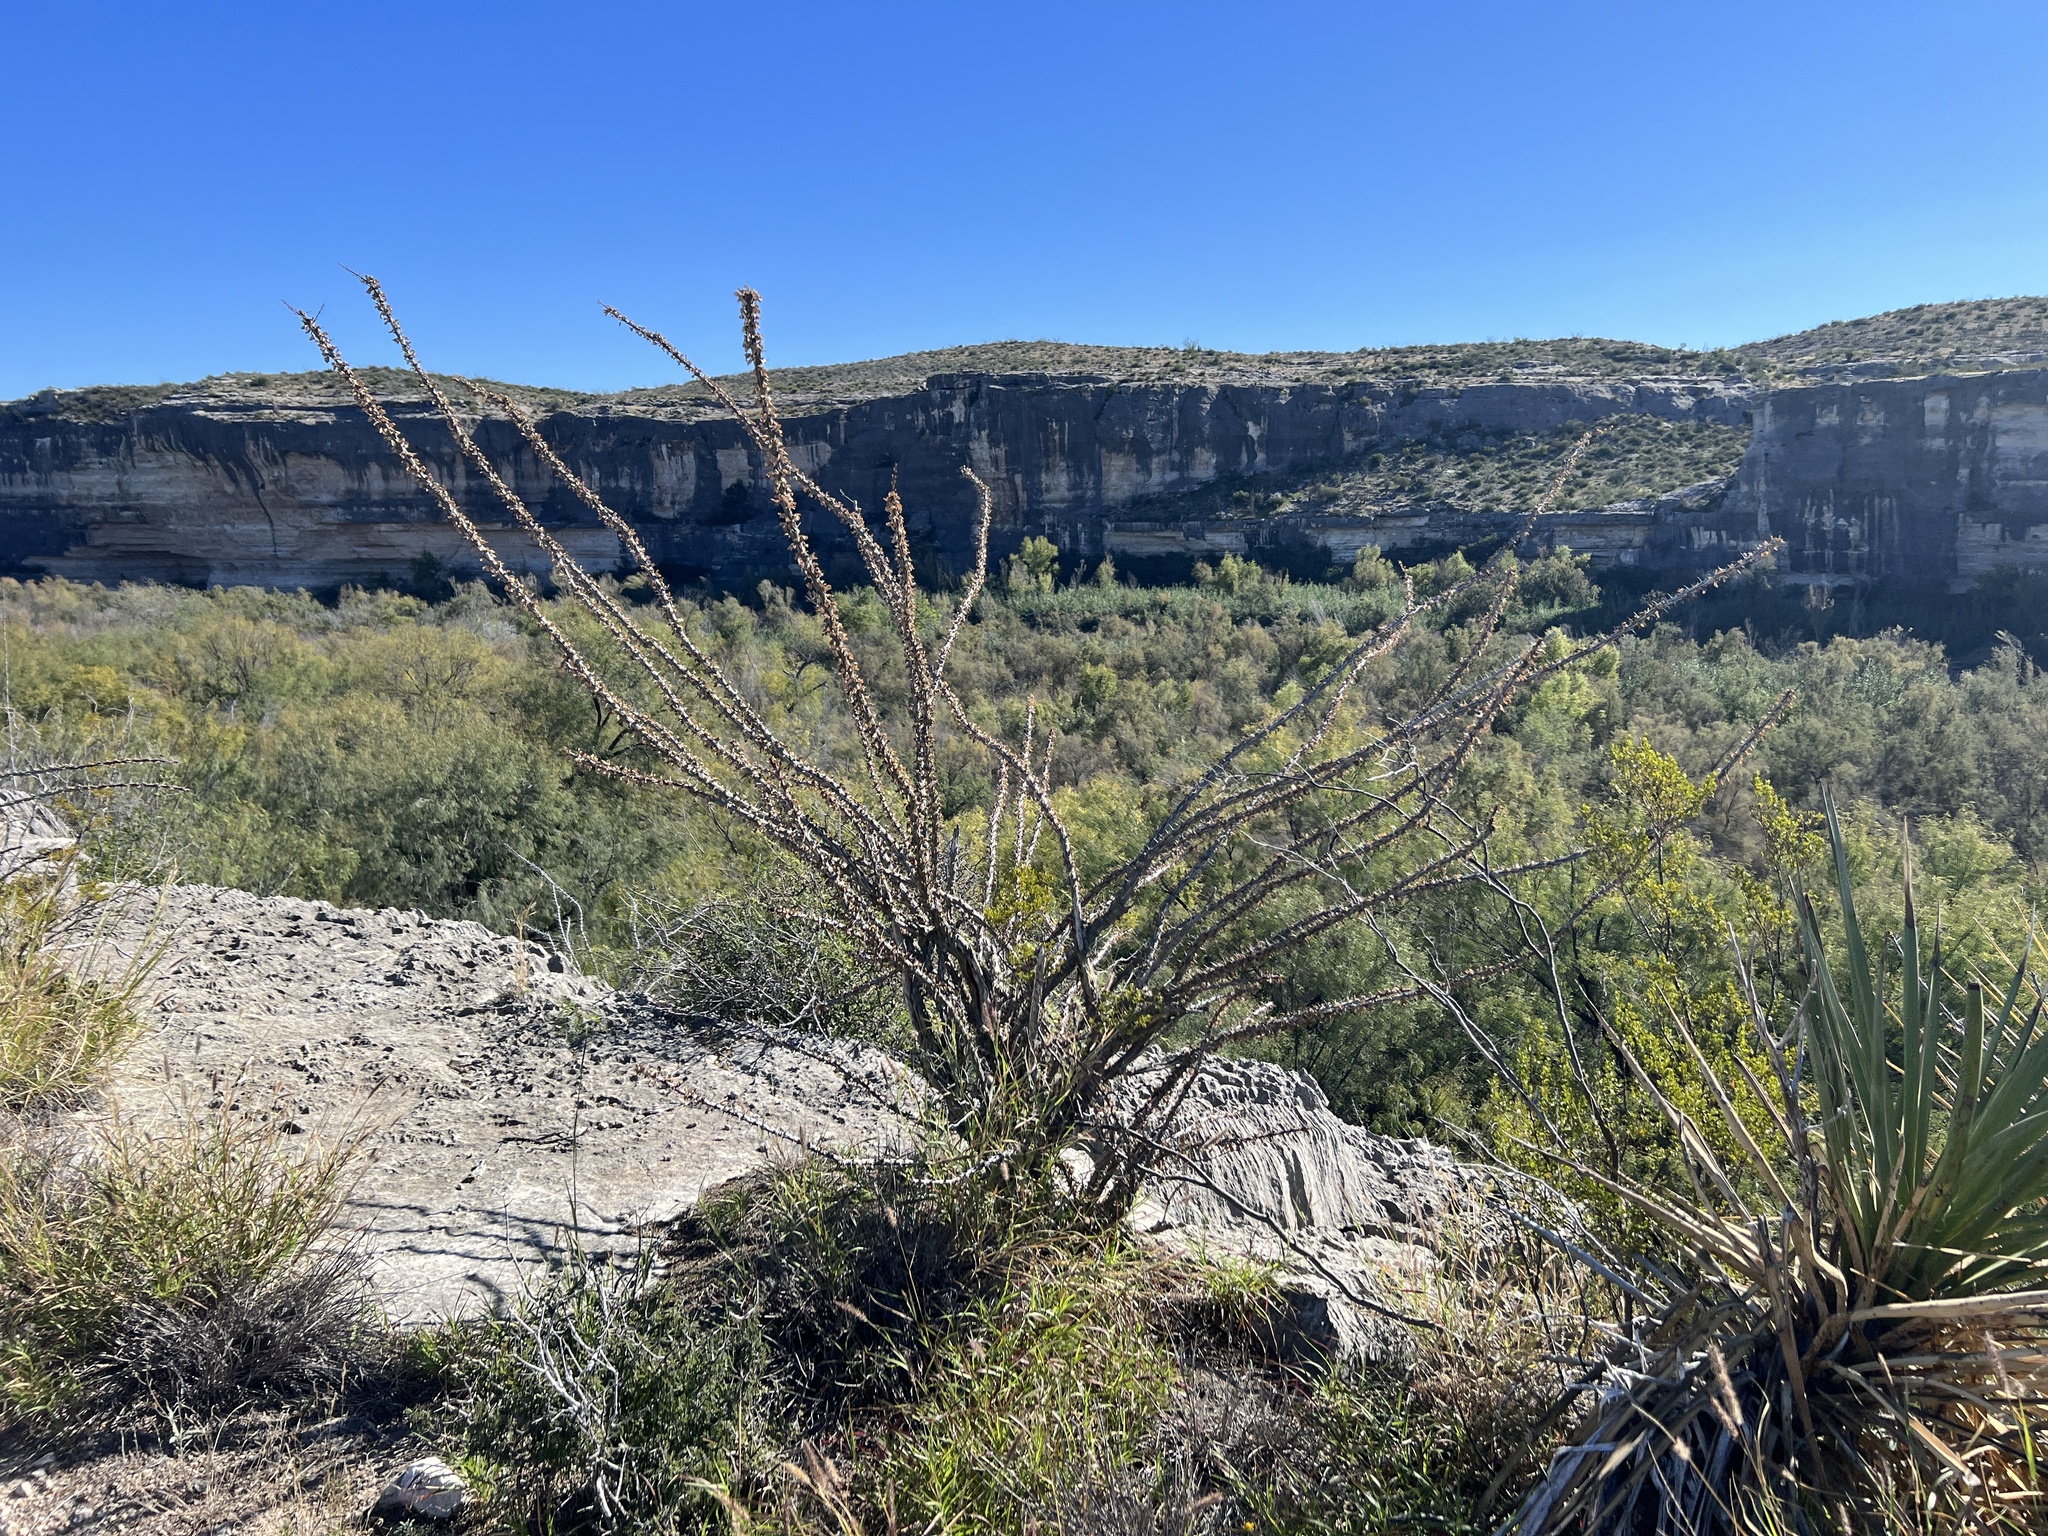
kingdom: Plantae
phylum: Tracheophyta
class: Magnoliopsida
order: Ericales
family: Fouquieriaceae
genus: Fouquieria
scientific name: Fouquieria splendens
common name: Vine-cactus
